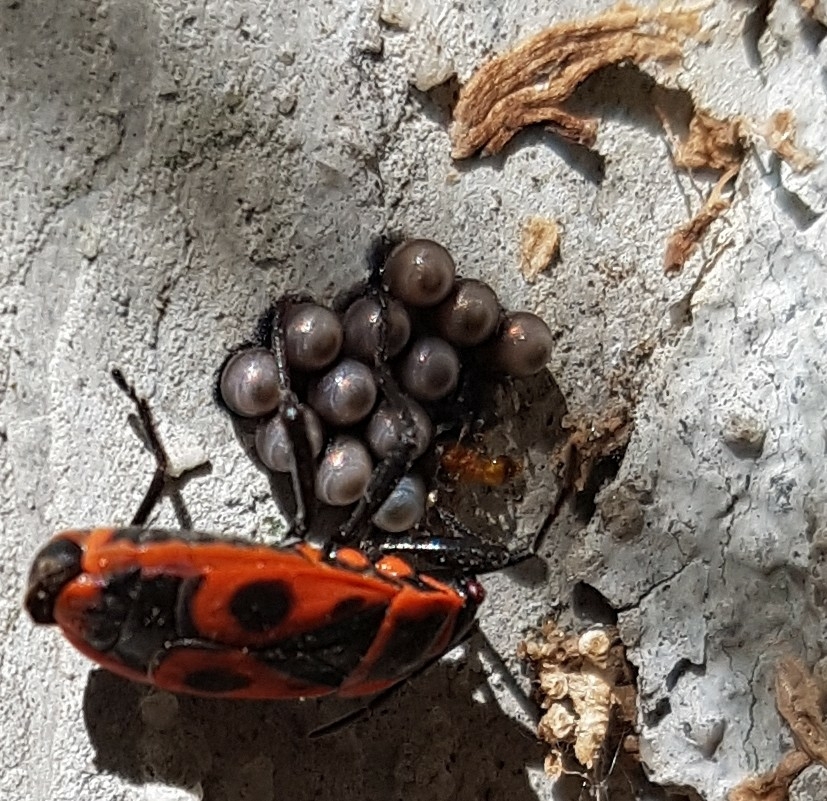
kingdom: Animalia
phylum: Arthropoda
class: Insecta
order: Hemiptera
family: Pentatomidae
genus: Rhaphigaster
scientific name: Rhaphigaster nebulosa
